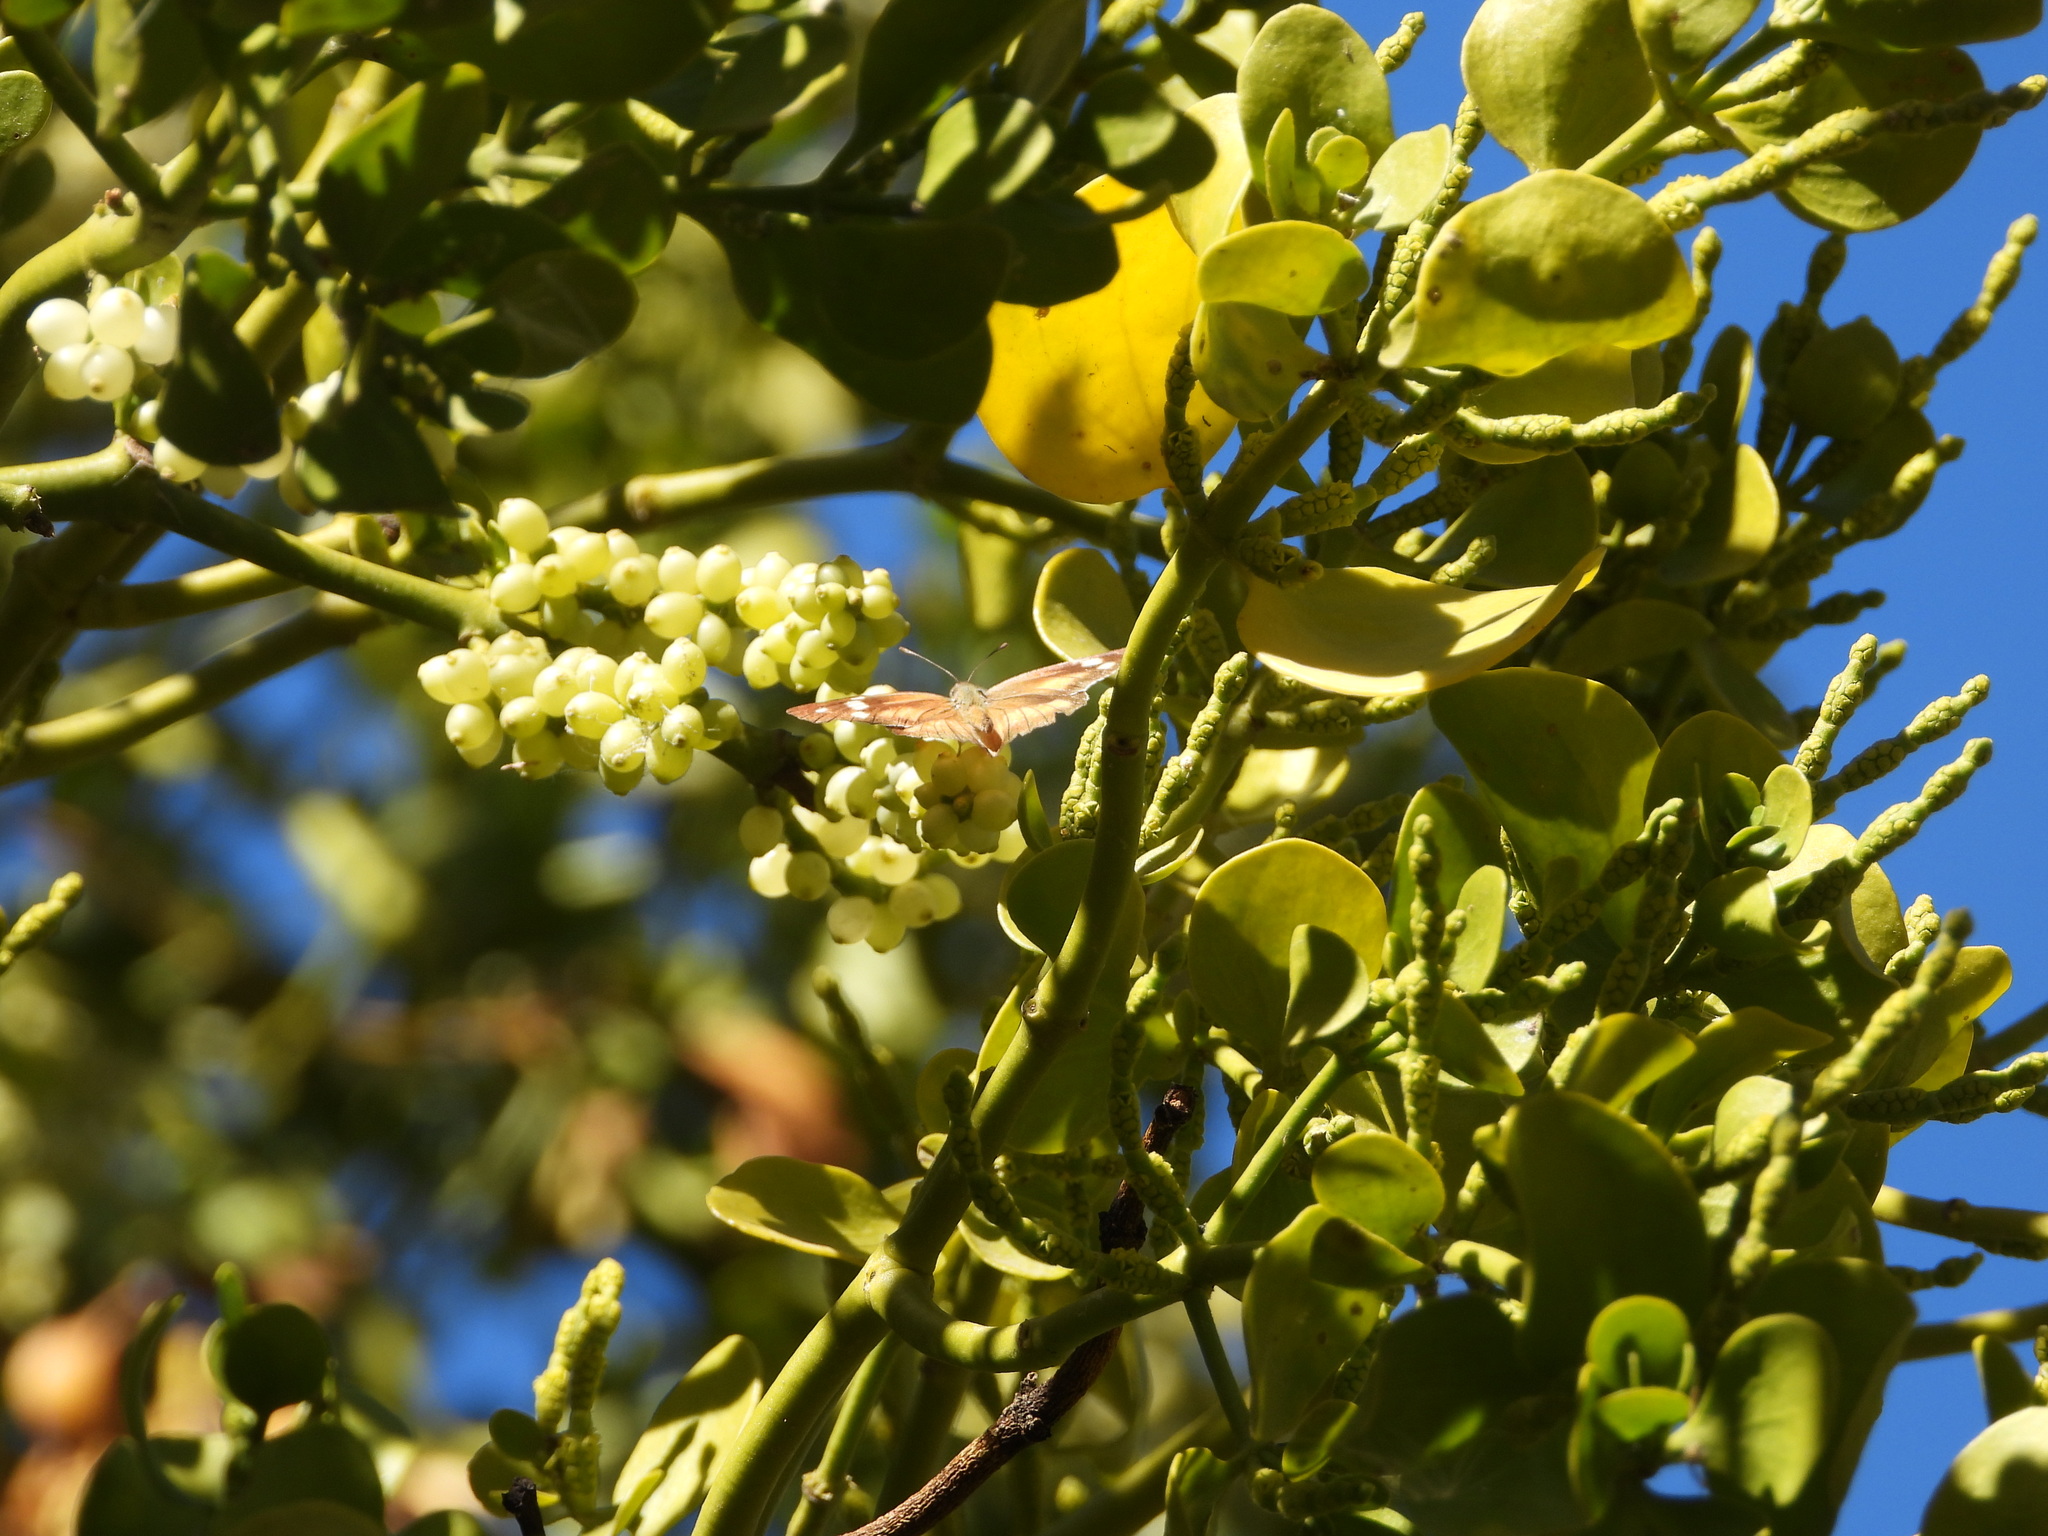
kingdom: Animalia
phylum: Arthropoda
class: Insecta
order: Lepidoptera
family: Nymphalidae
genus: Libytheana
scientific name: Libytheana carinenta
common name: American snout
